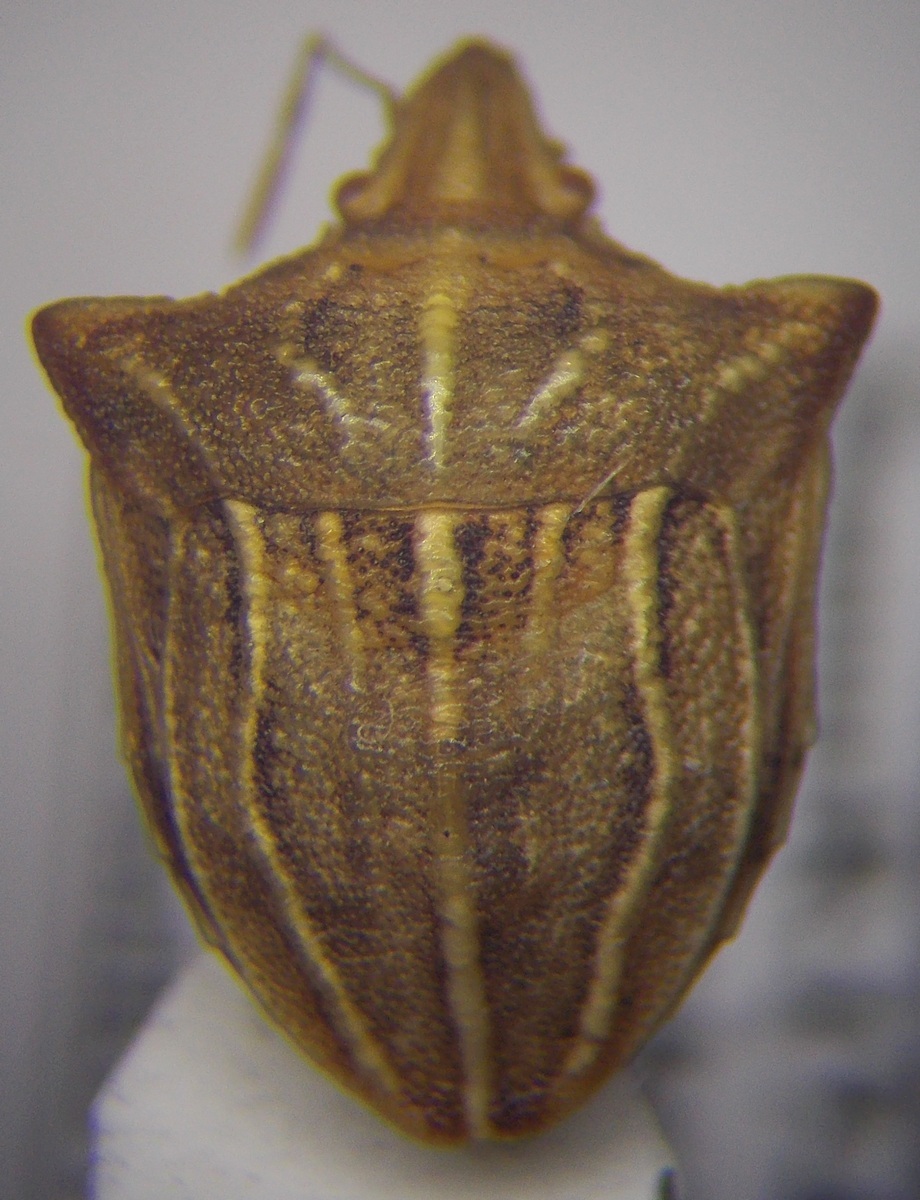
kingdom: Animalia
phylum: Arthropoda
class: Insecta
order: Hemiptera
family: Pentatomidae
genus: Ancyrosoma
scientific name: Ancyrosoma leucogrammes
